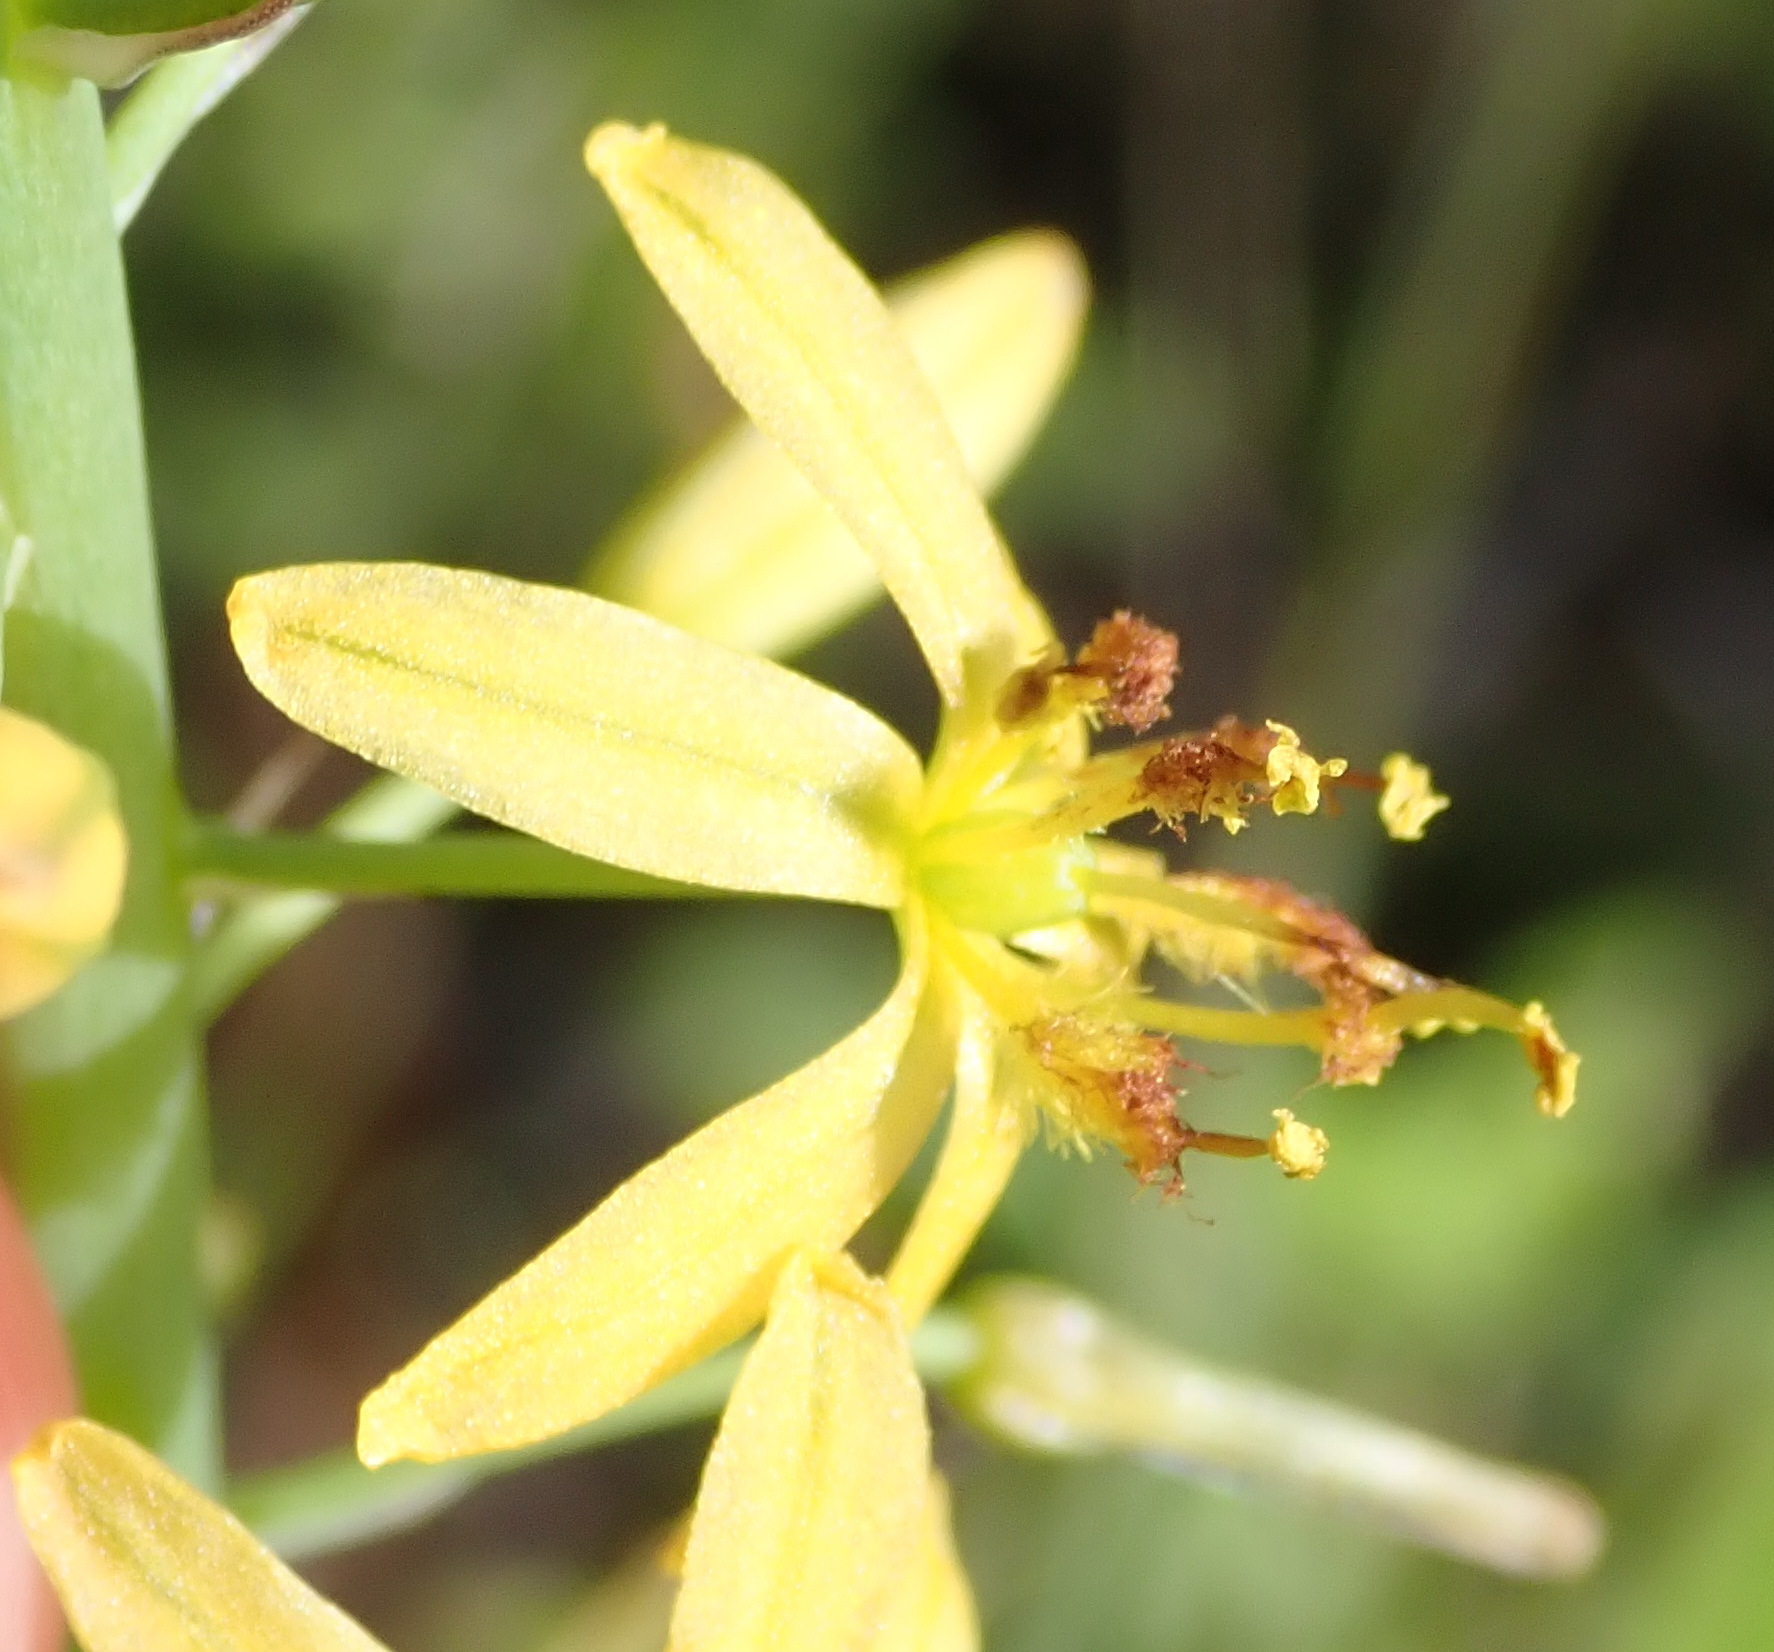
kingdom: Plantae
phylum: Tracheophyta
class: Liliopsida
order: Asparagales
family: Asphodelaceae
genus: Bulbine
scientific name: Bulbine cepacea
